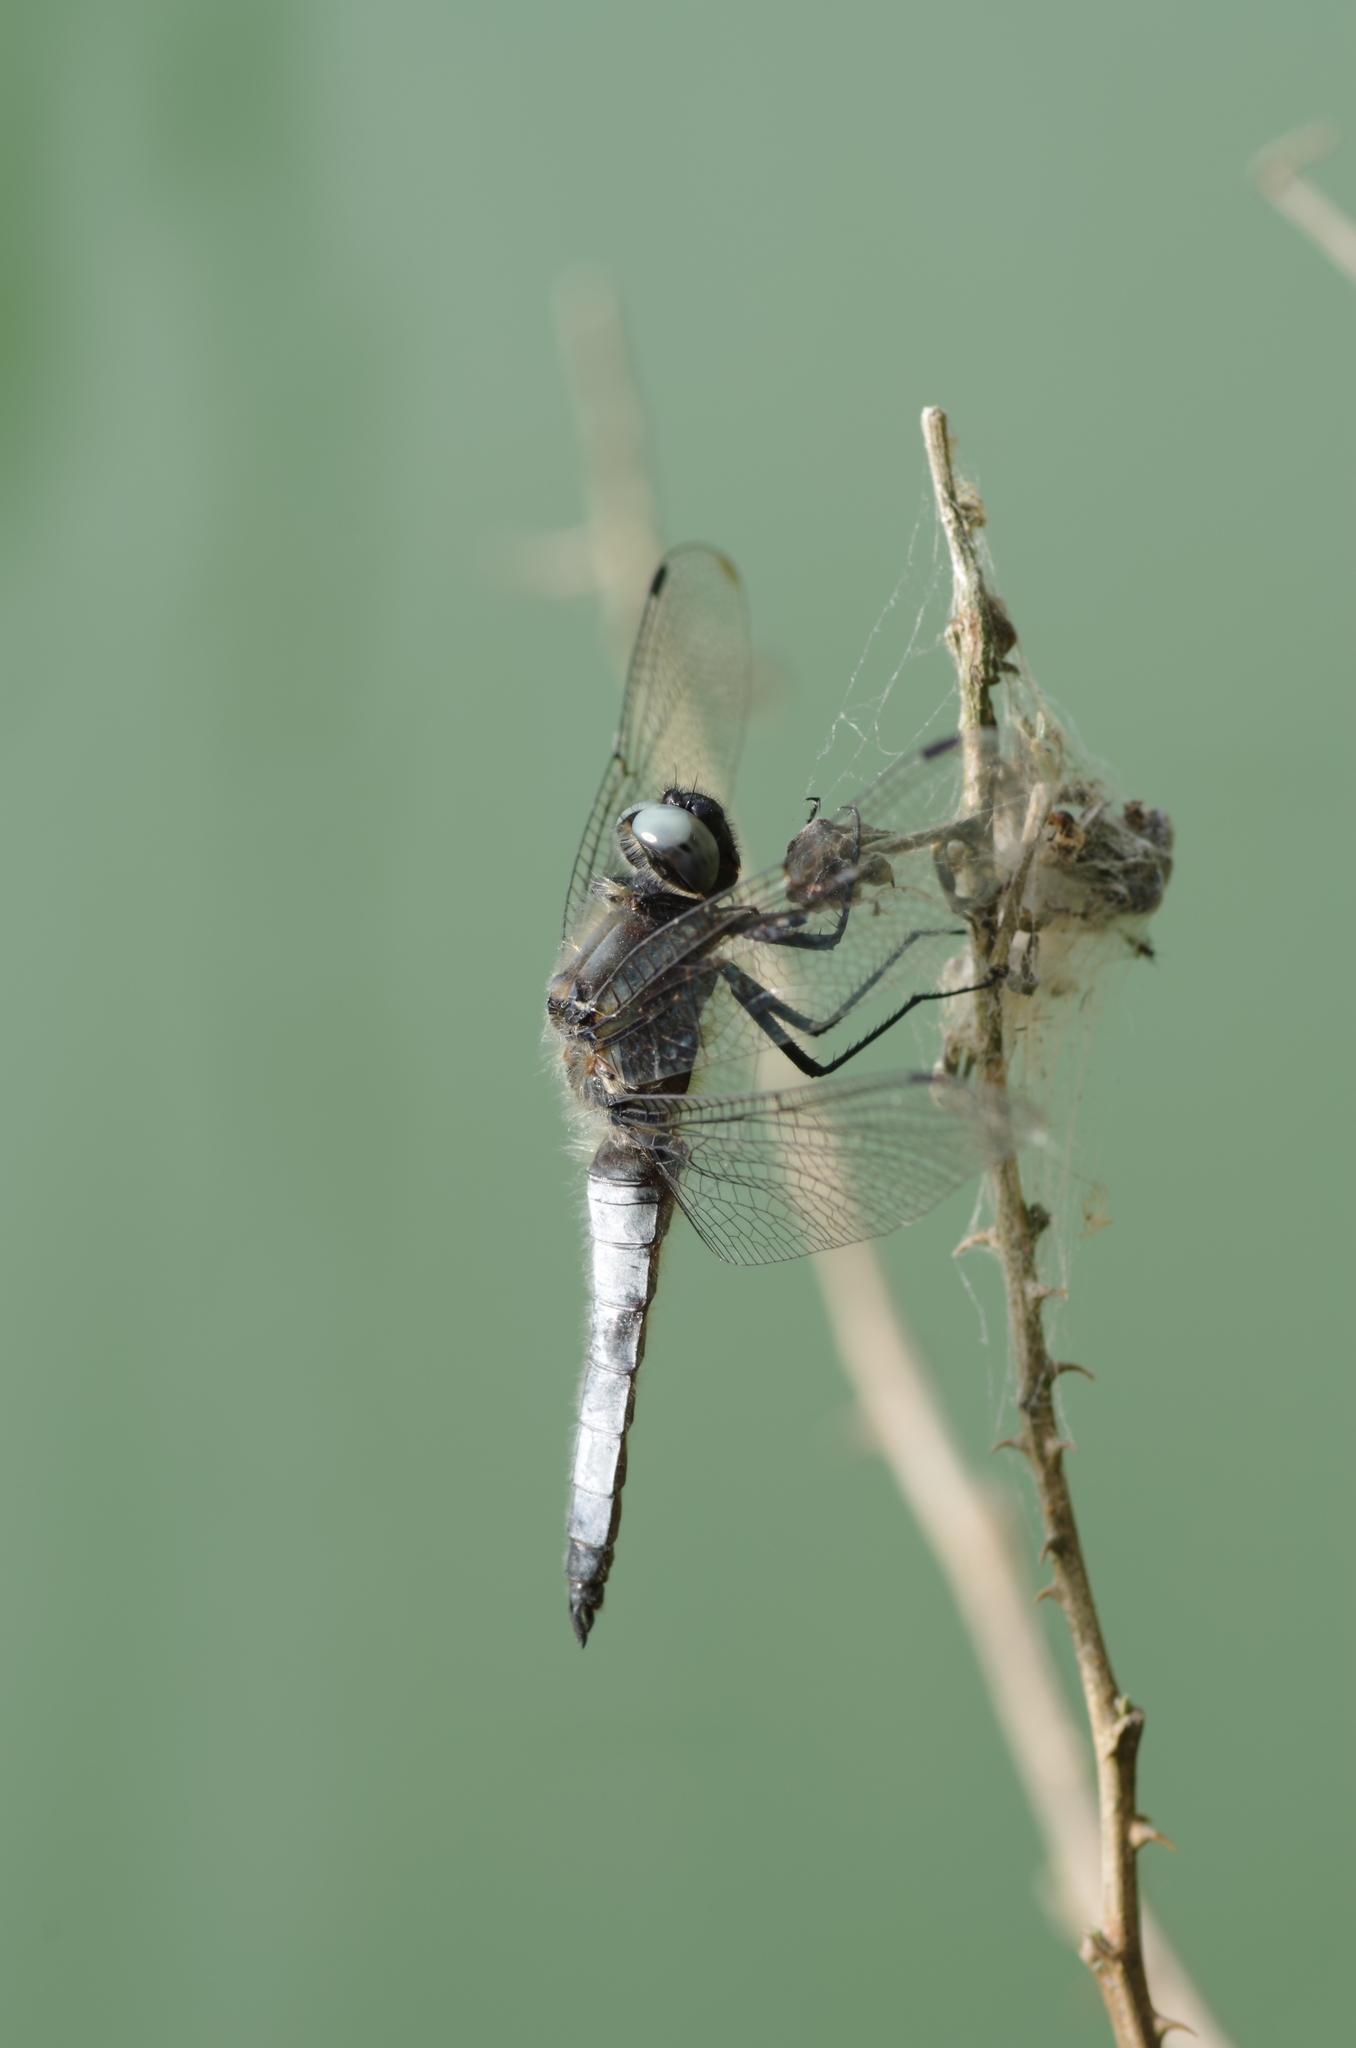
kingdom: Animalia
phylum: Arthropoda
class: Insecta
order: Odonata
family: Libellulidae
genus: Libellula
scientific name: Libellula fulva
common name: Blue chaser
